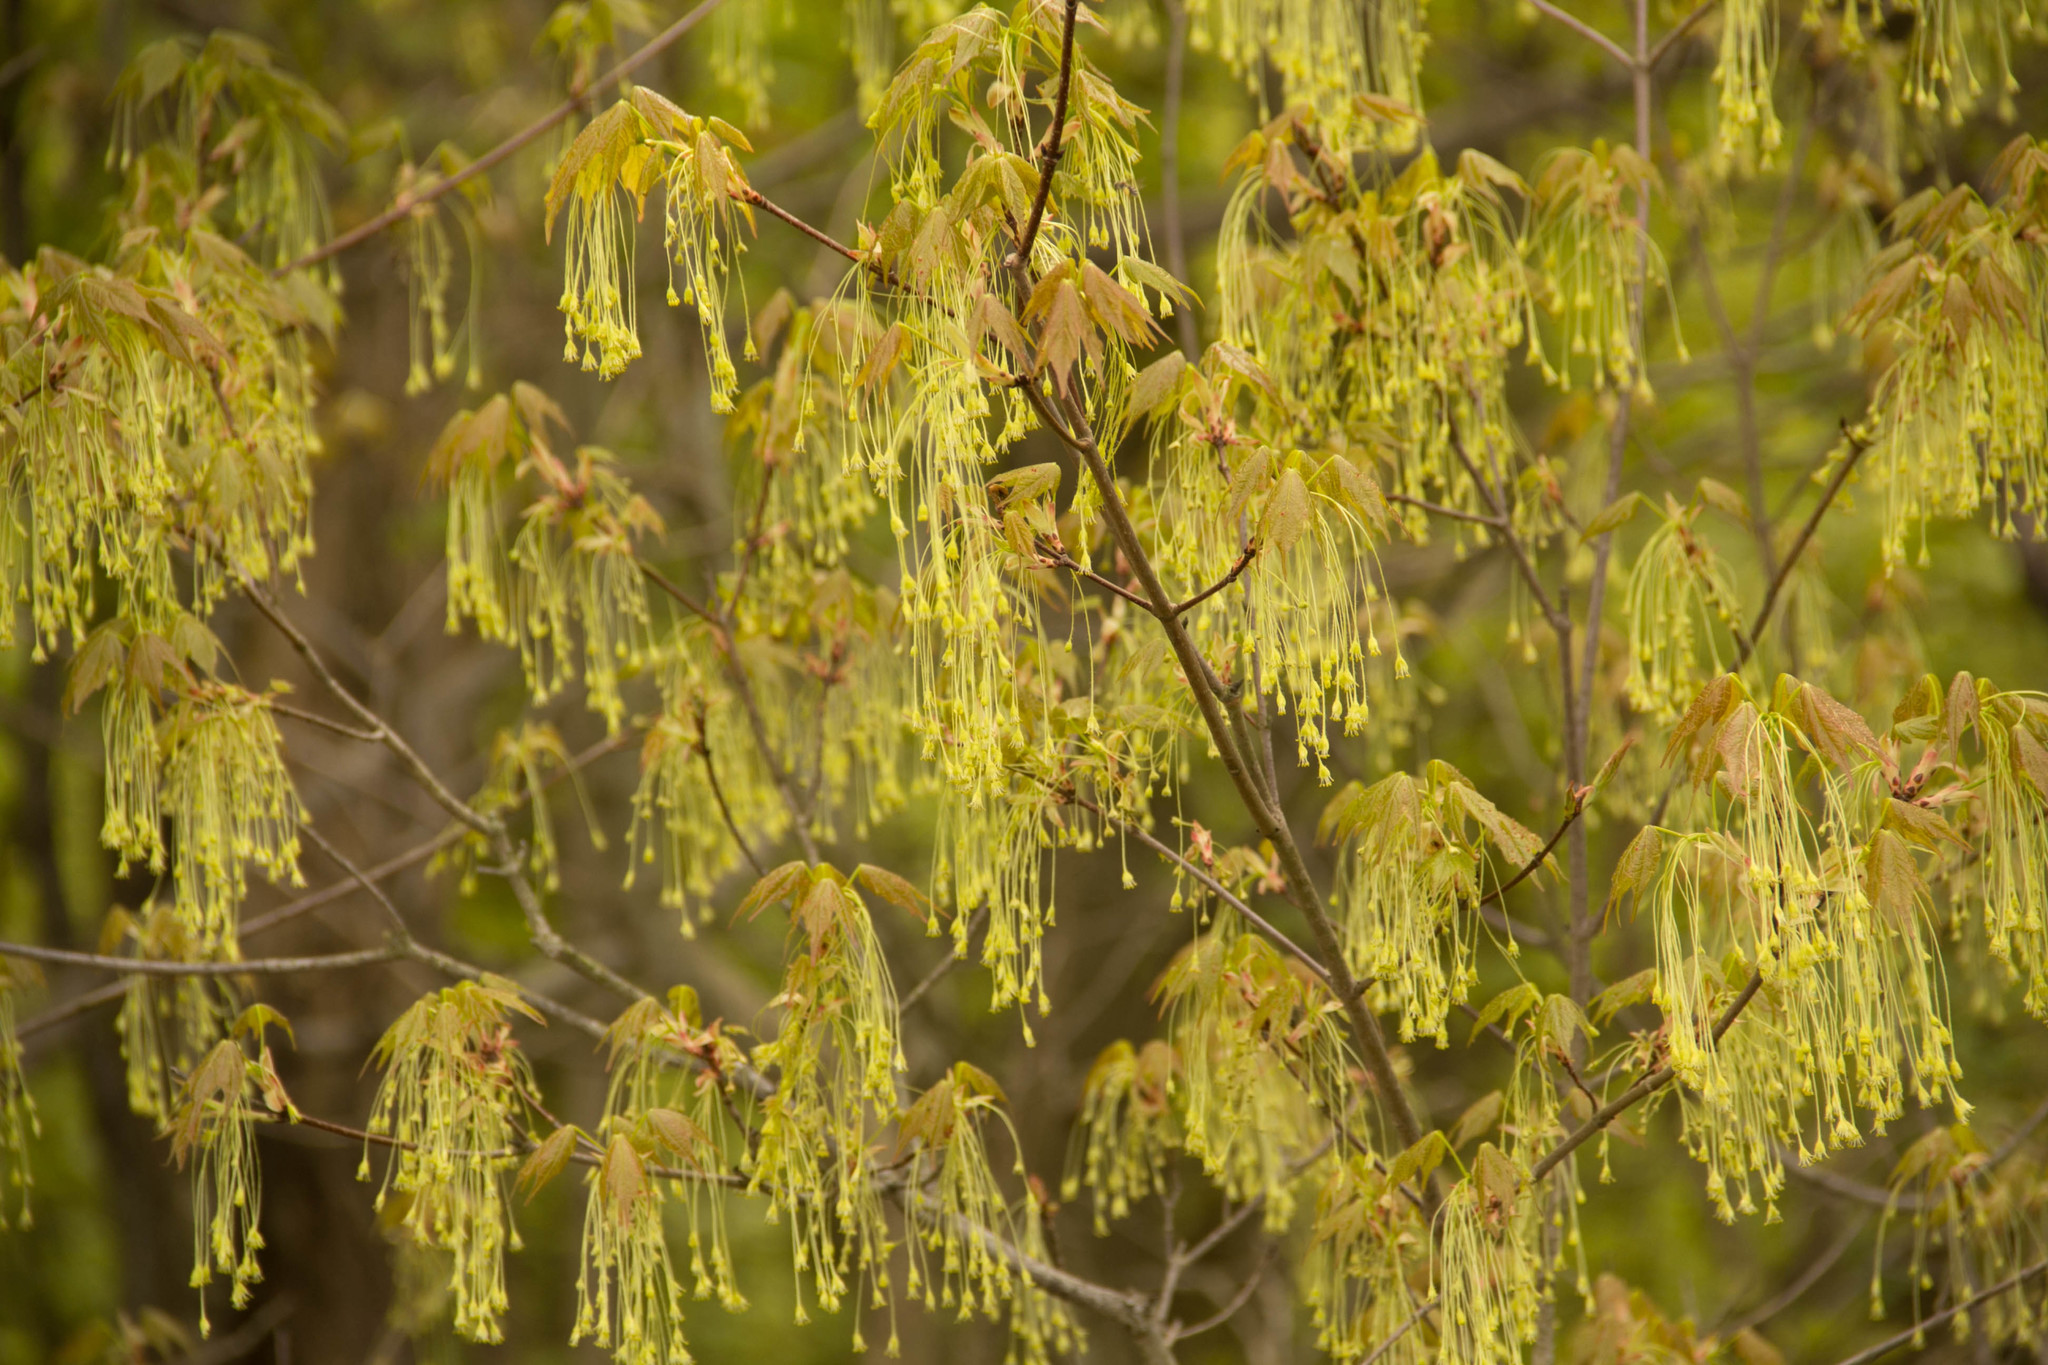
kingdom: Plantae
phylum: Tracheophyta
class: Magnoliopsida
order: Sapindales
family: Sapindaceae
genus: Acer
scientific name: Acer saccharum
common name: Sugar maple
